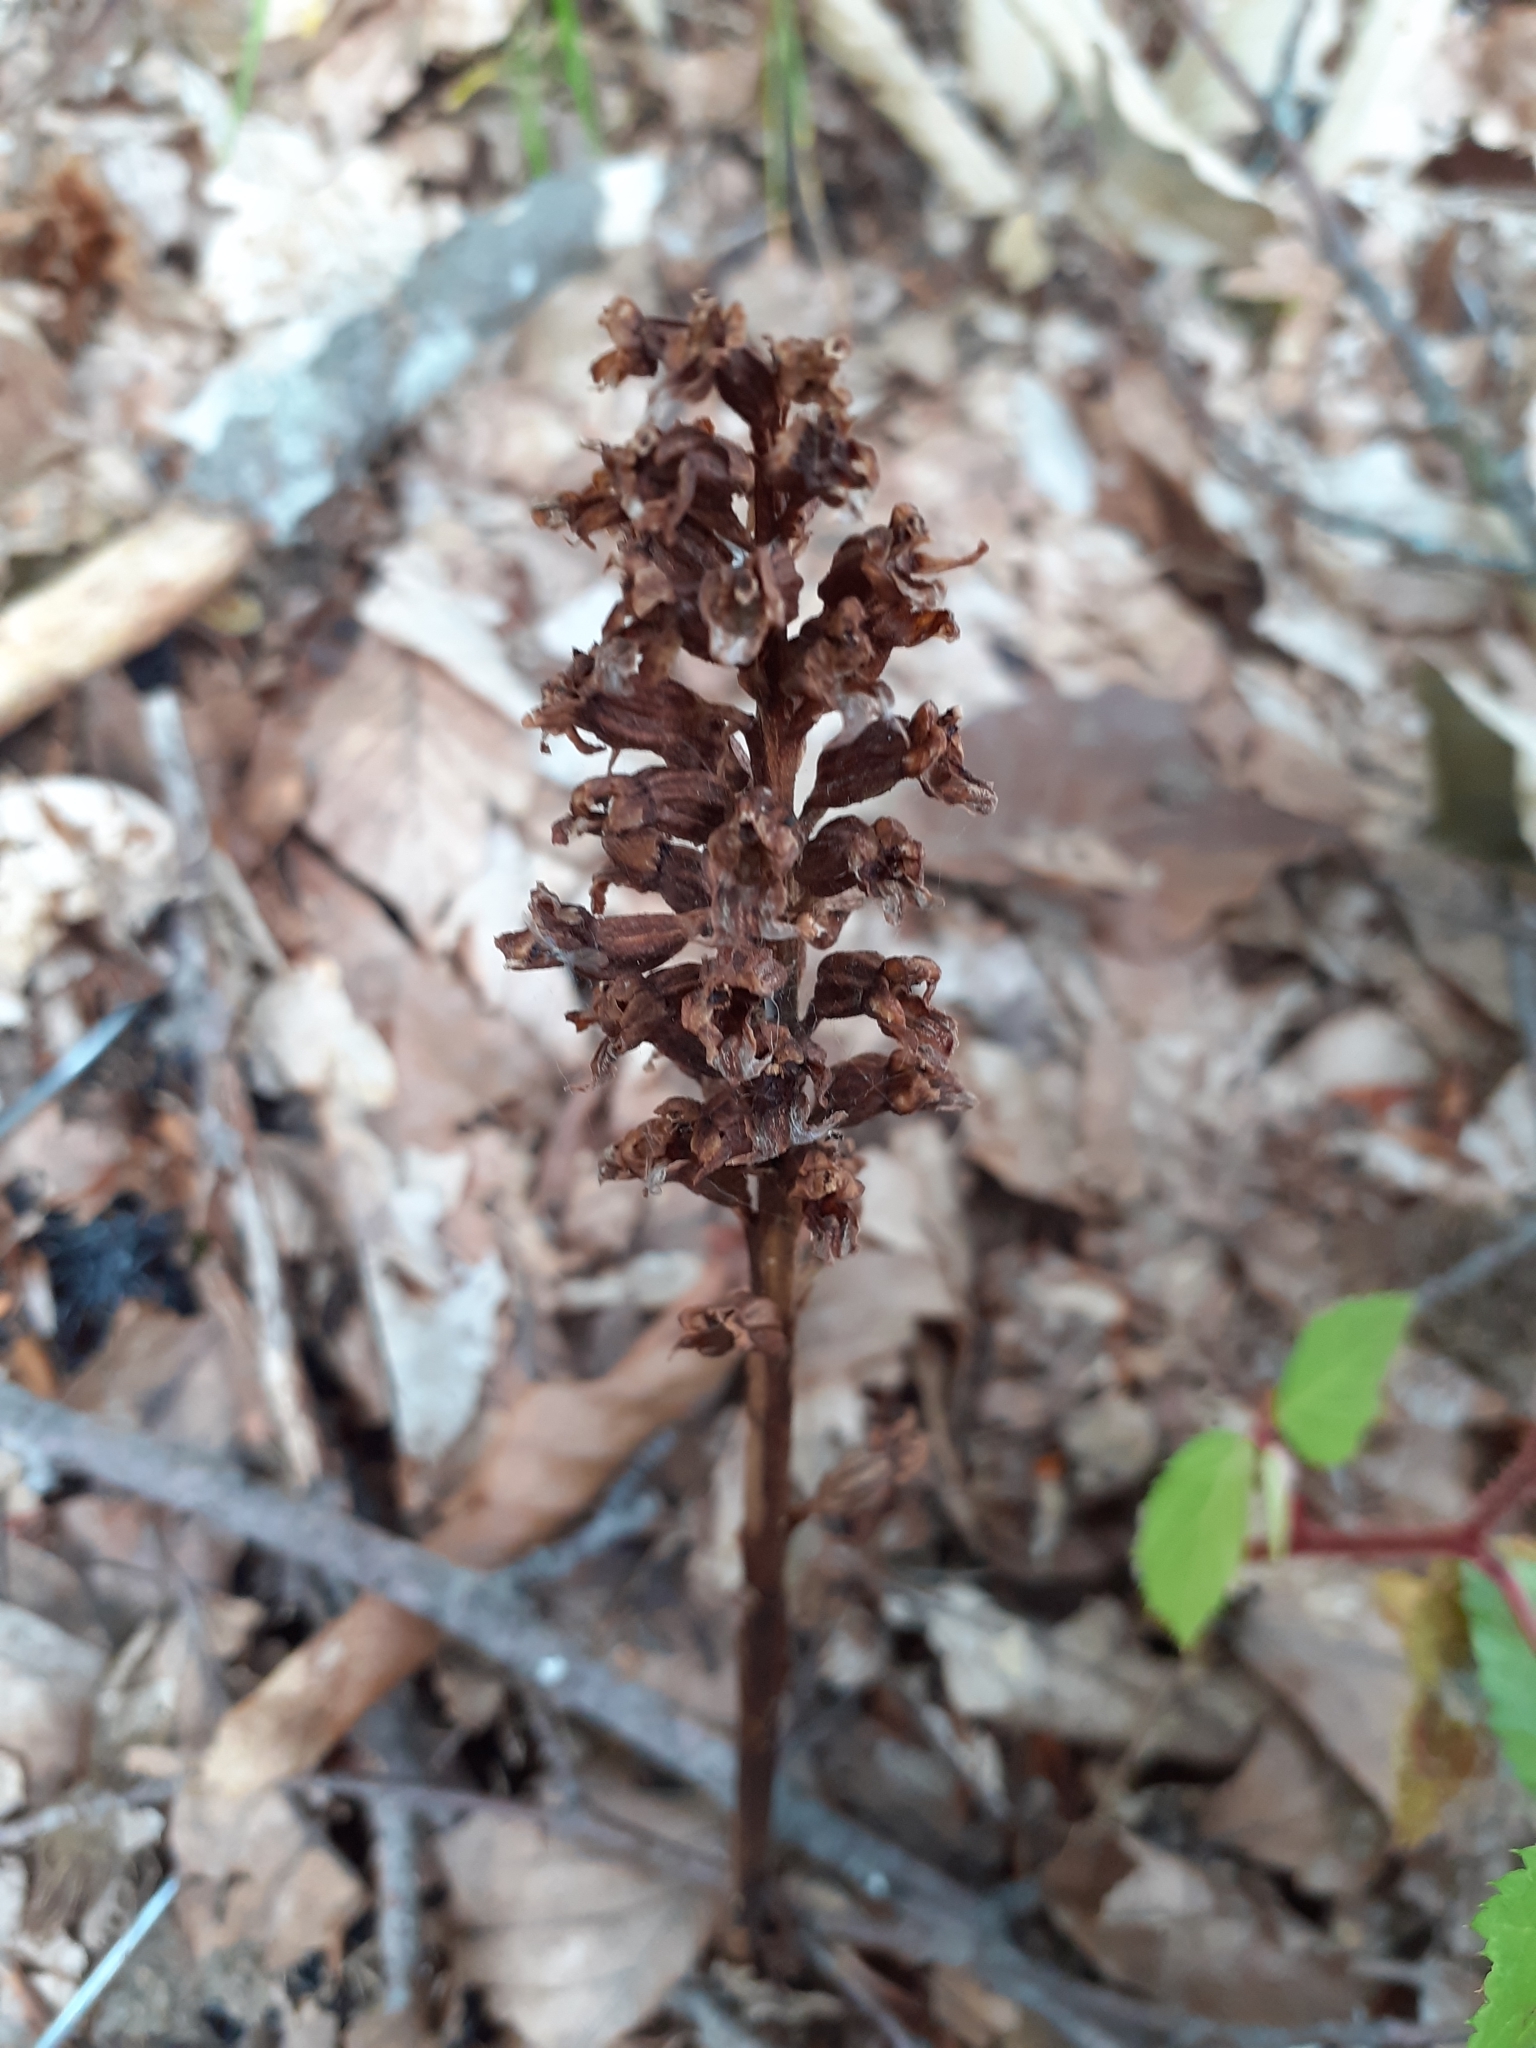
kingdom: Plantae
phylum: Tracheophyta
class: Liliopsida
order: Asparagales
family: Orchidaceae
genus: Neottia
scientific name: Neottia nidus-avis
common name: Bird's-nest orchid
